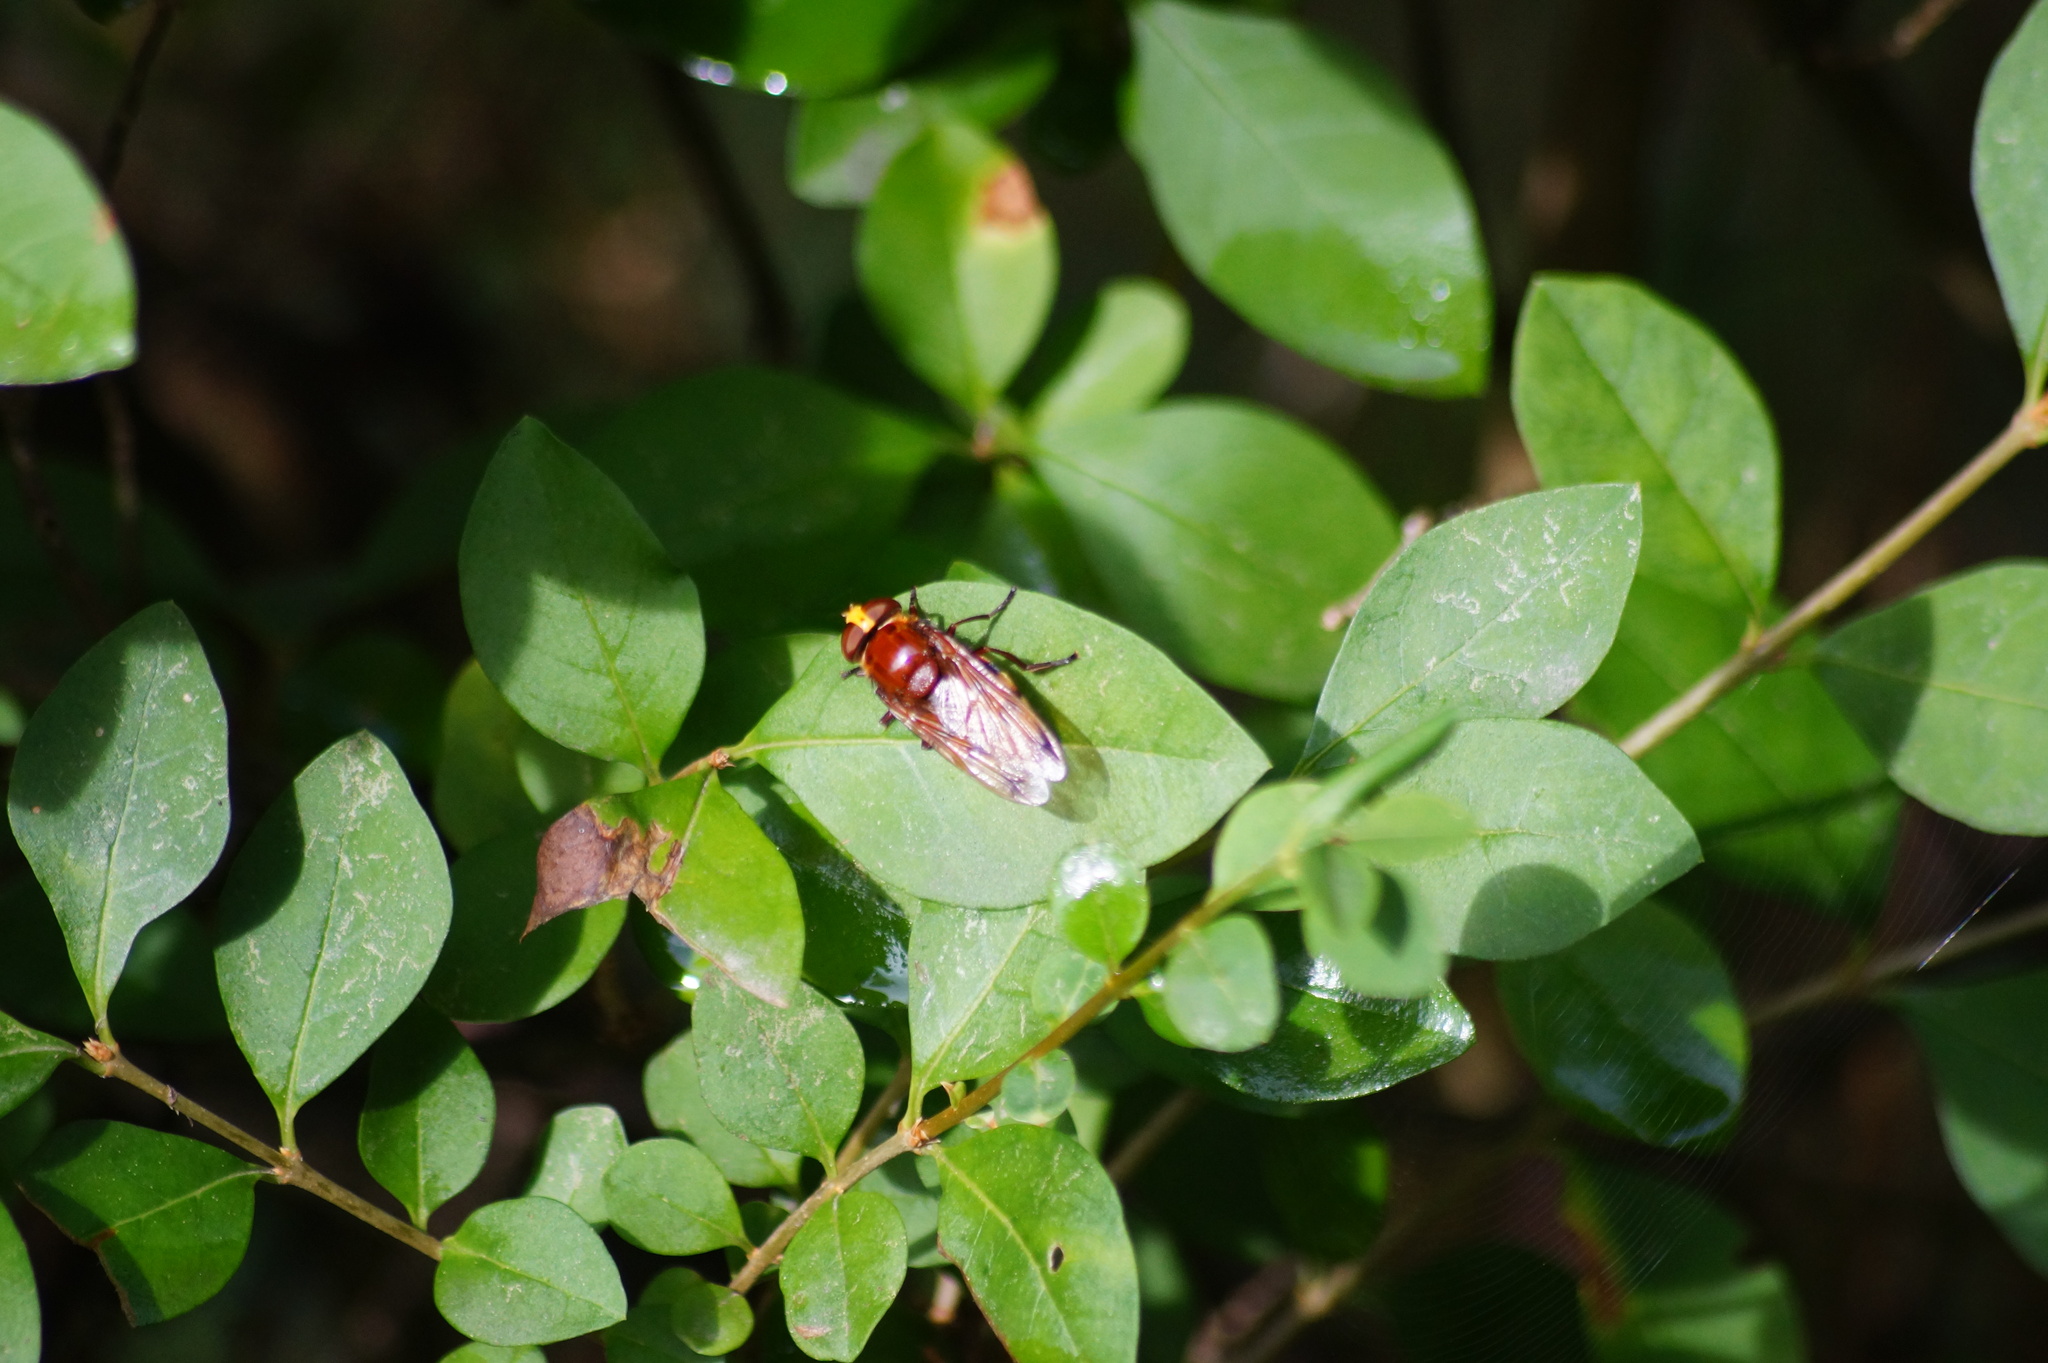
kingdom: Animalia
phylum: Arthropoda
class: Insecta
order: Diptera
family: Syrphidae
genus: Volucella
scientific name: Volucella zonaria
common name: Hornet hoverfly
